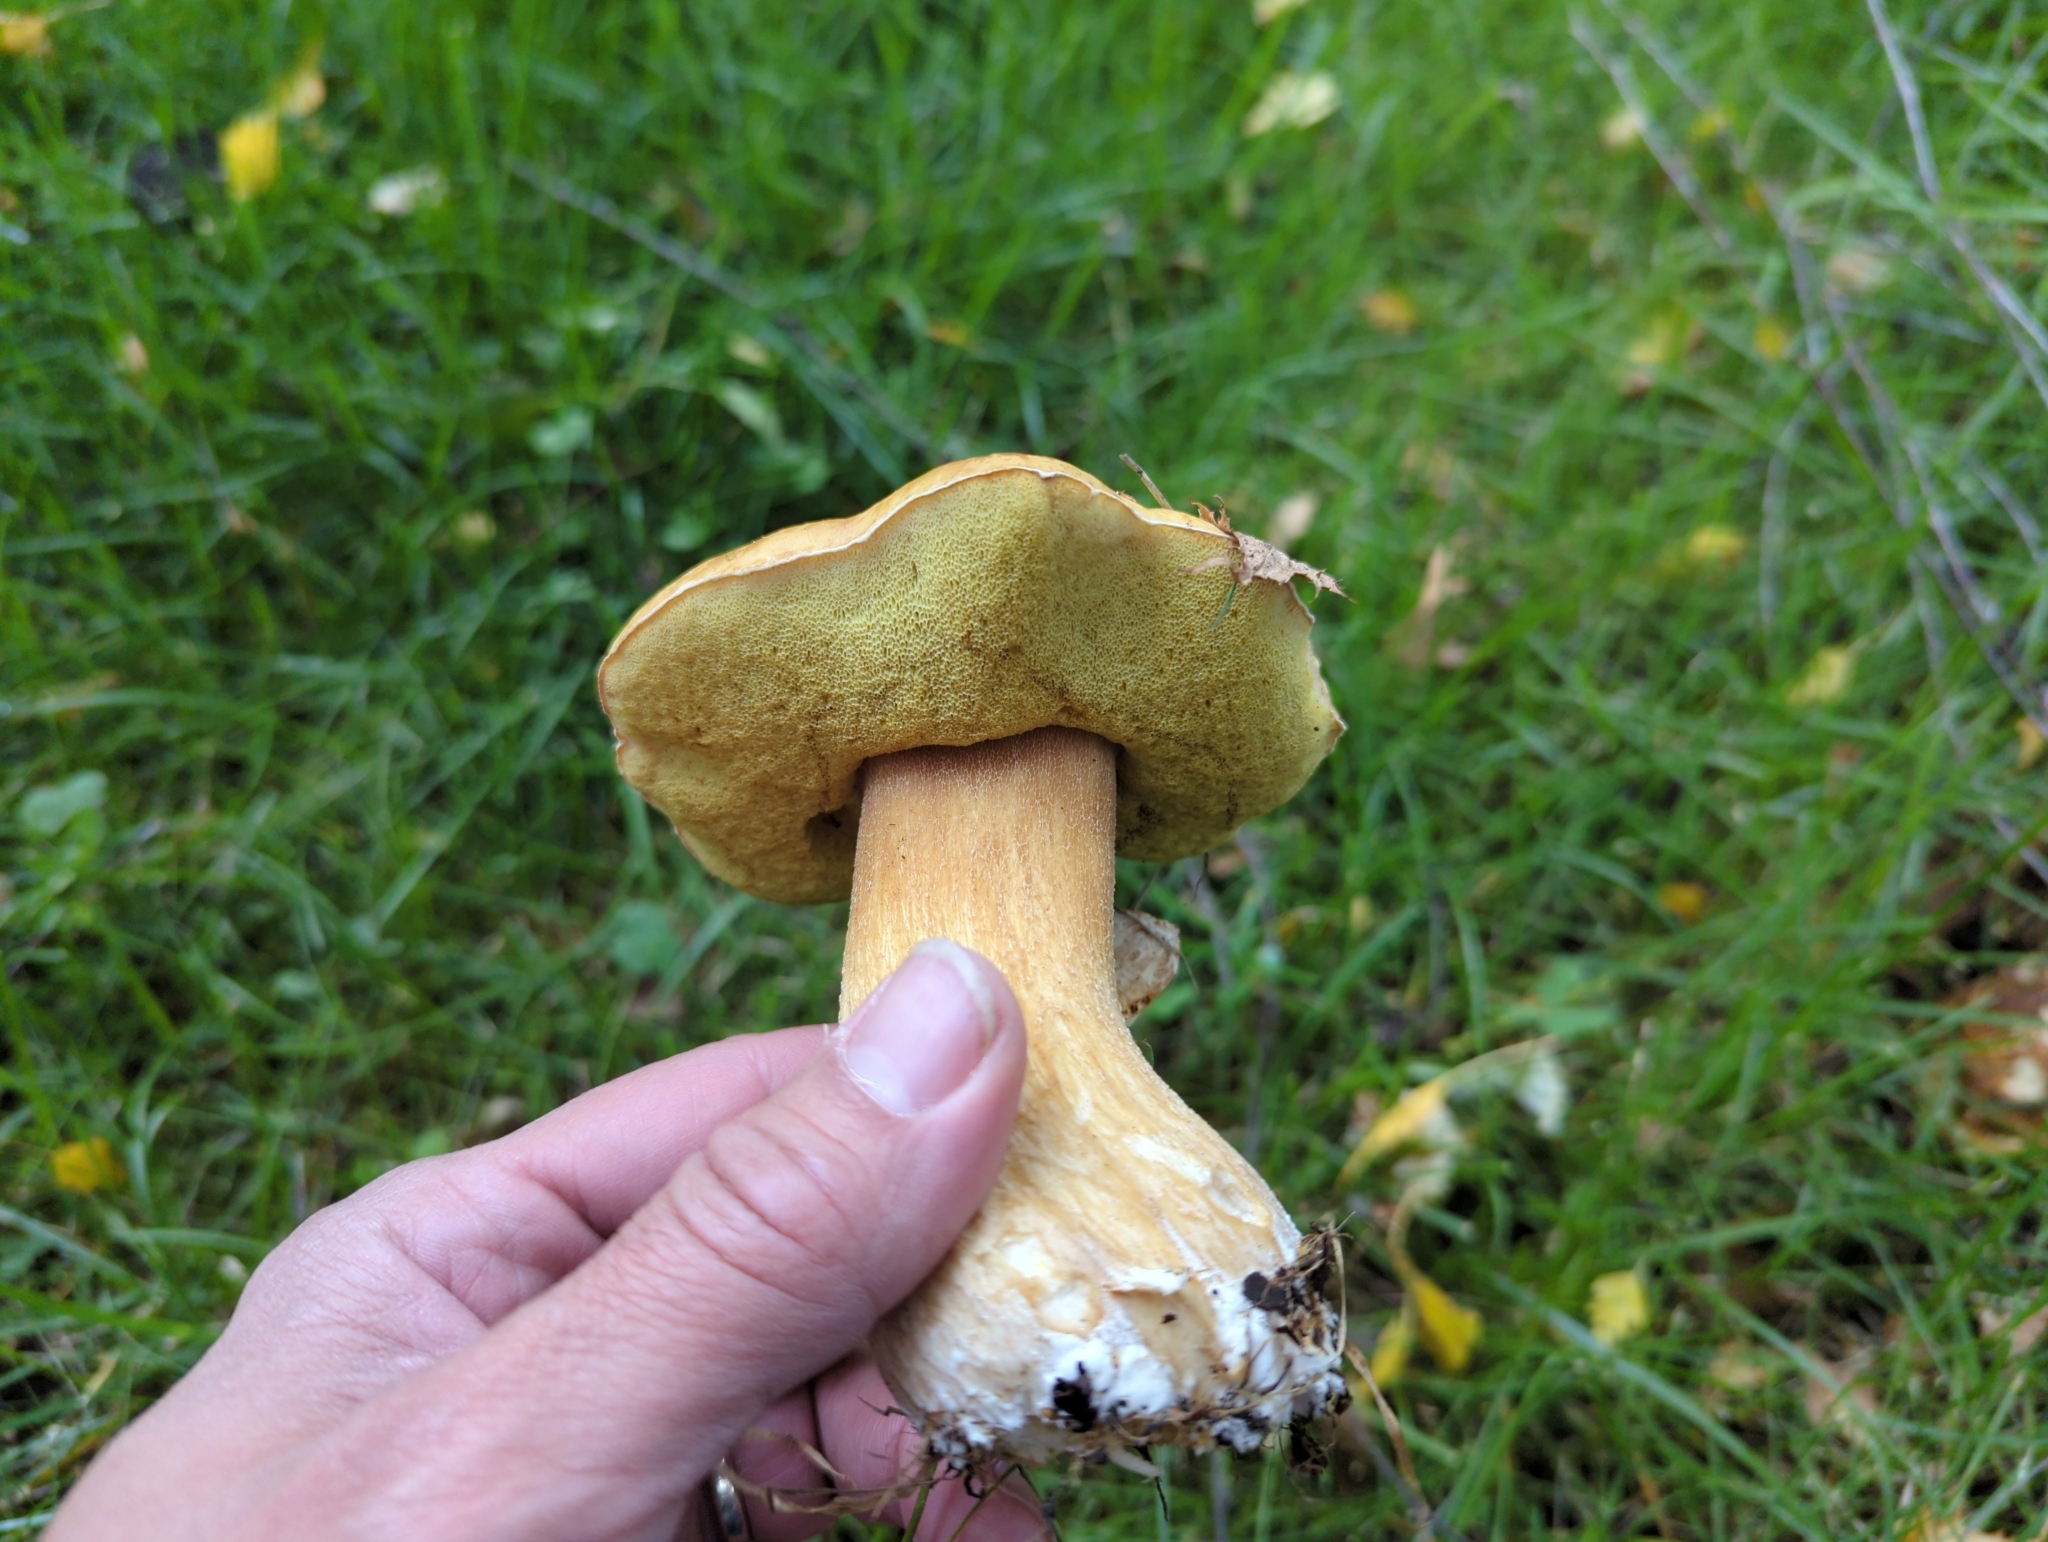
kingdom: Fungi
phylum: Basidiomycota
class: Agaricomycetes
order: Boletales
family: Boletaceae
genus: Boletus
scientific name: Boletus edulis
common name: Cep
